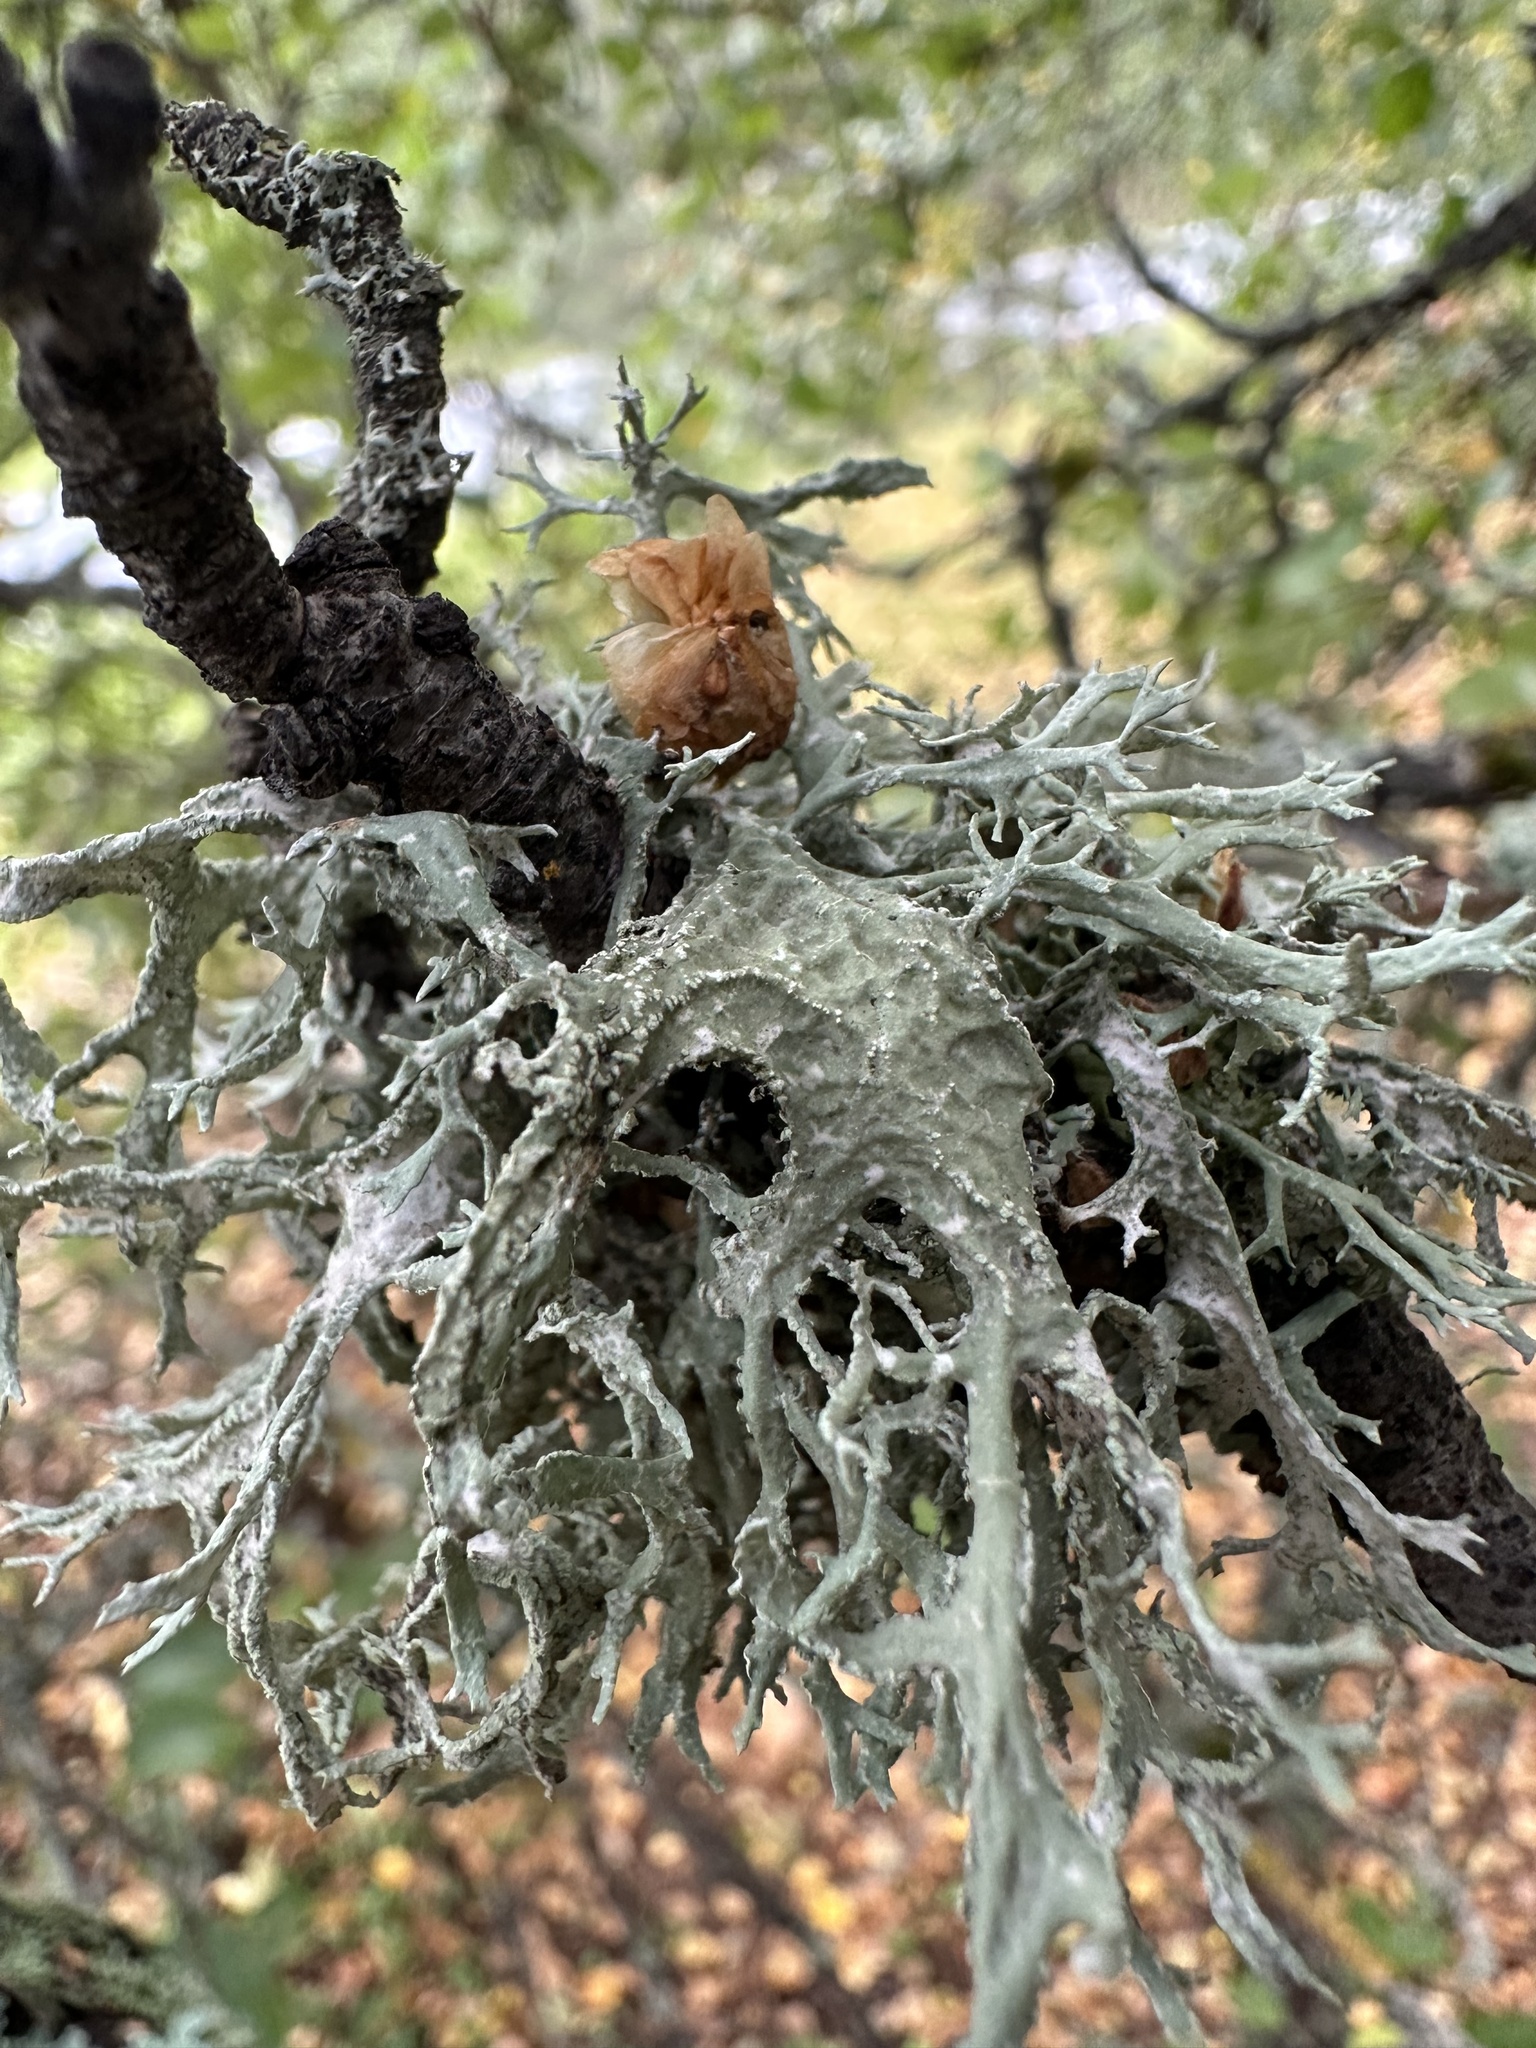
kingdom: Fungi
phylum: Ascomycota
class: Lecanoromycetes
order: Lecanorales
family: Parmeliaceae
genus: Evernia
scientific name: Evernia prunastri
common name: Oak moss
